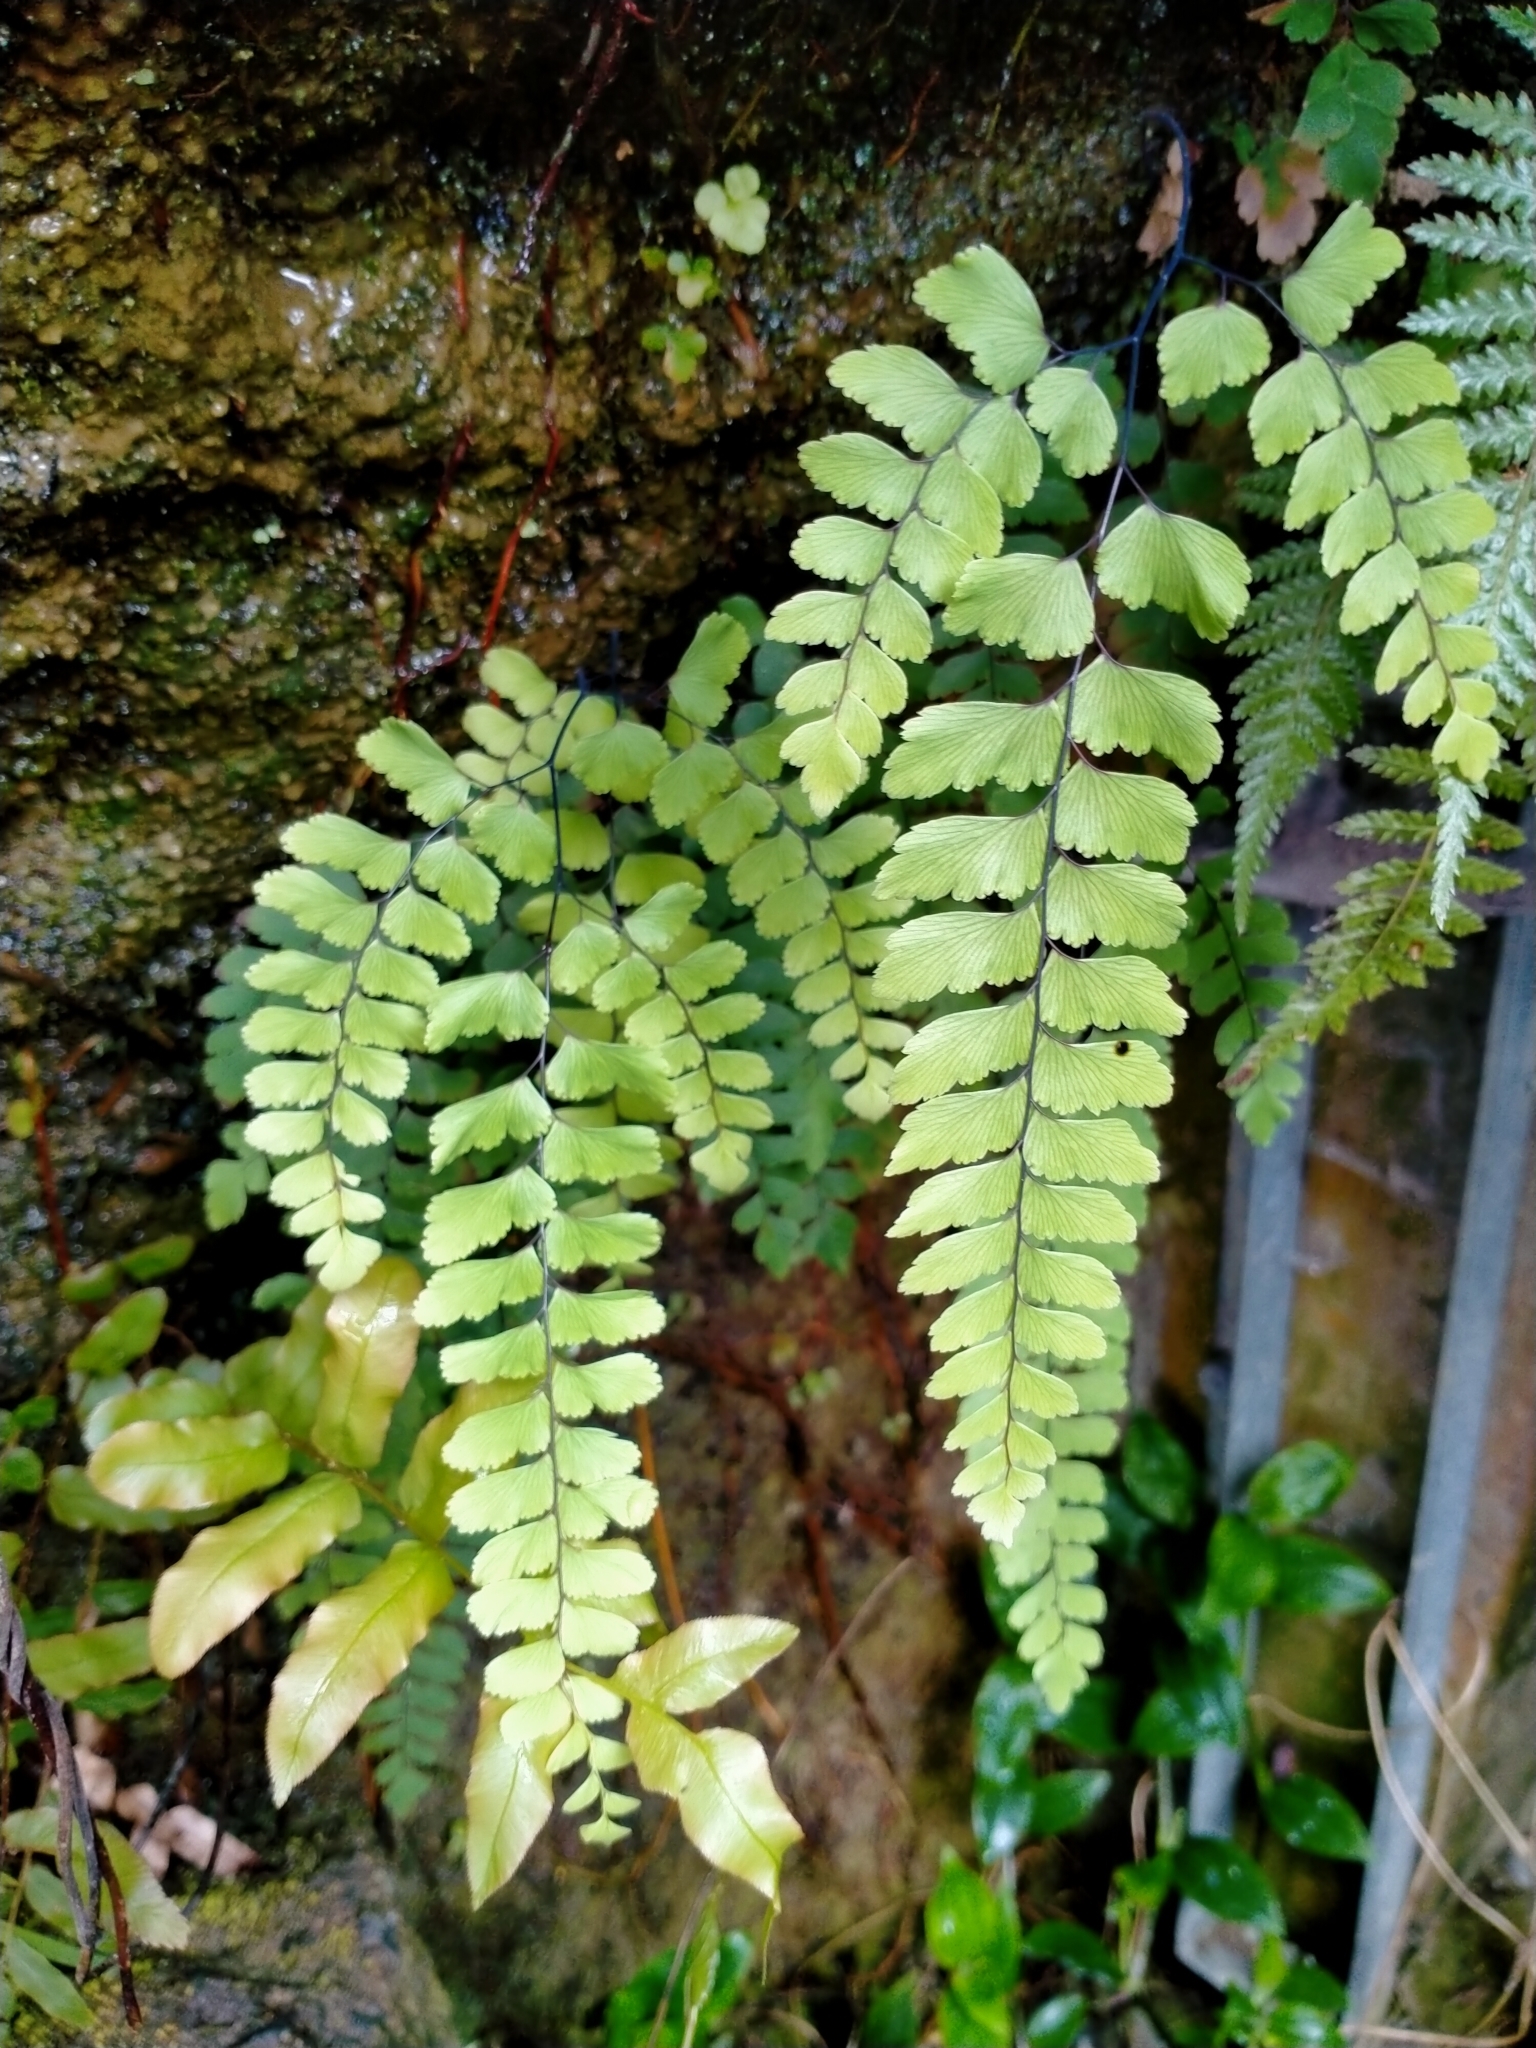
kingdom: Plantae
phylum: Tracheophyta
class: Polypodiopsida
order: Polypodiales
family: Pteridaceae
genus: Adiantum
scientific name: Adiantum cunninghamii
